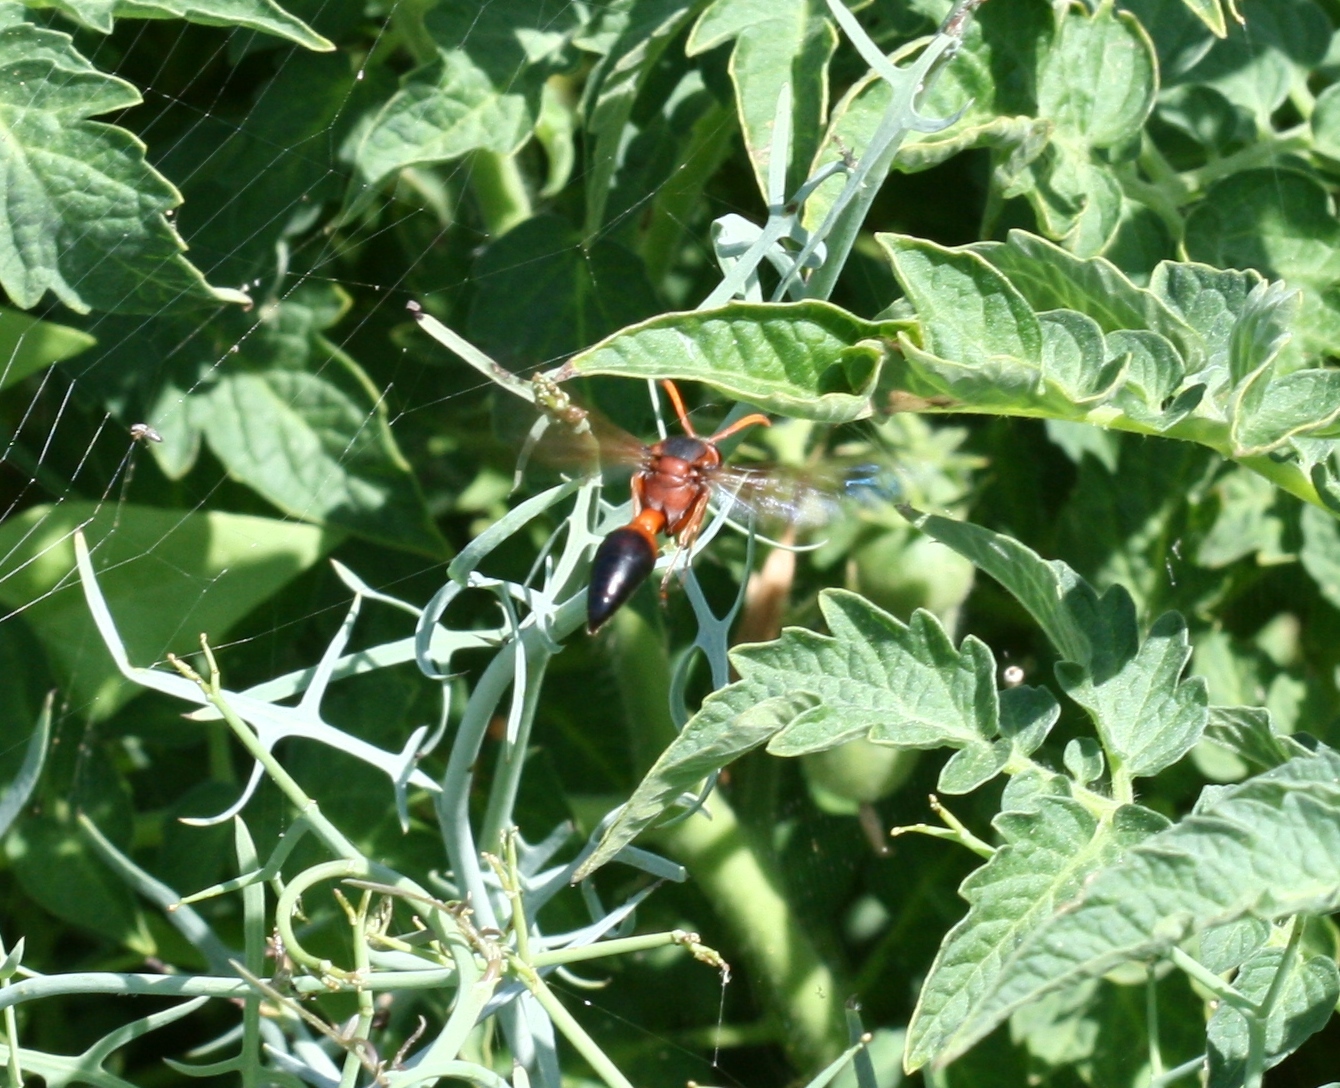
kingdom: Animalia
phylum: Arthropoda
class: Insecta
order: Hymenoptera
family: Eumenidae
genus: Delta
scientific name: Delta dimidiatipenne
